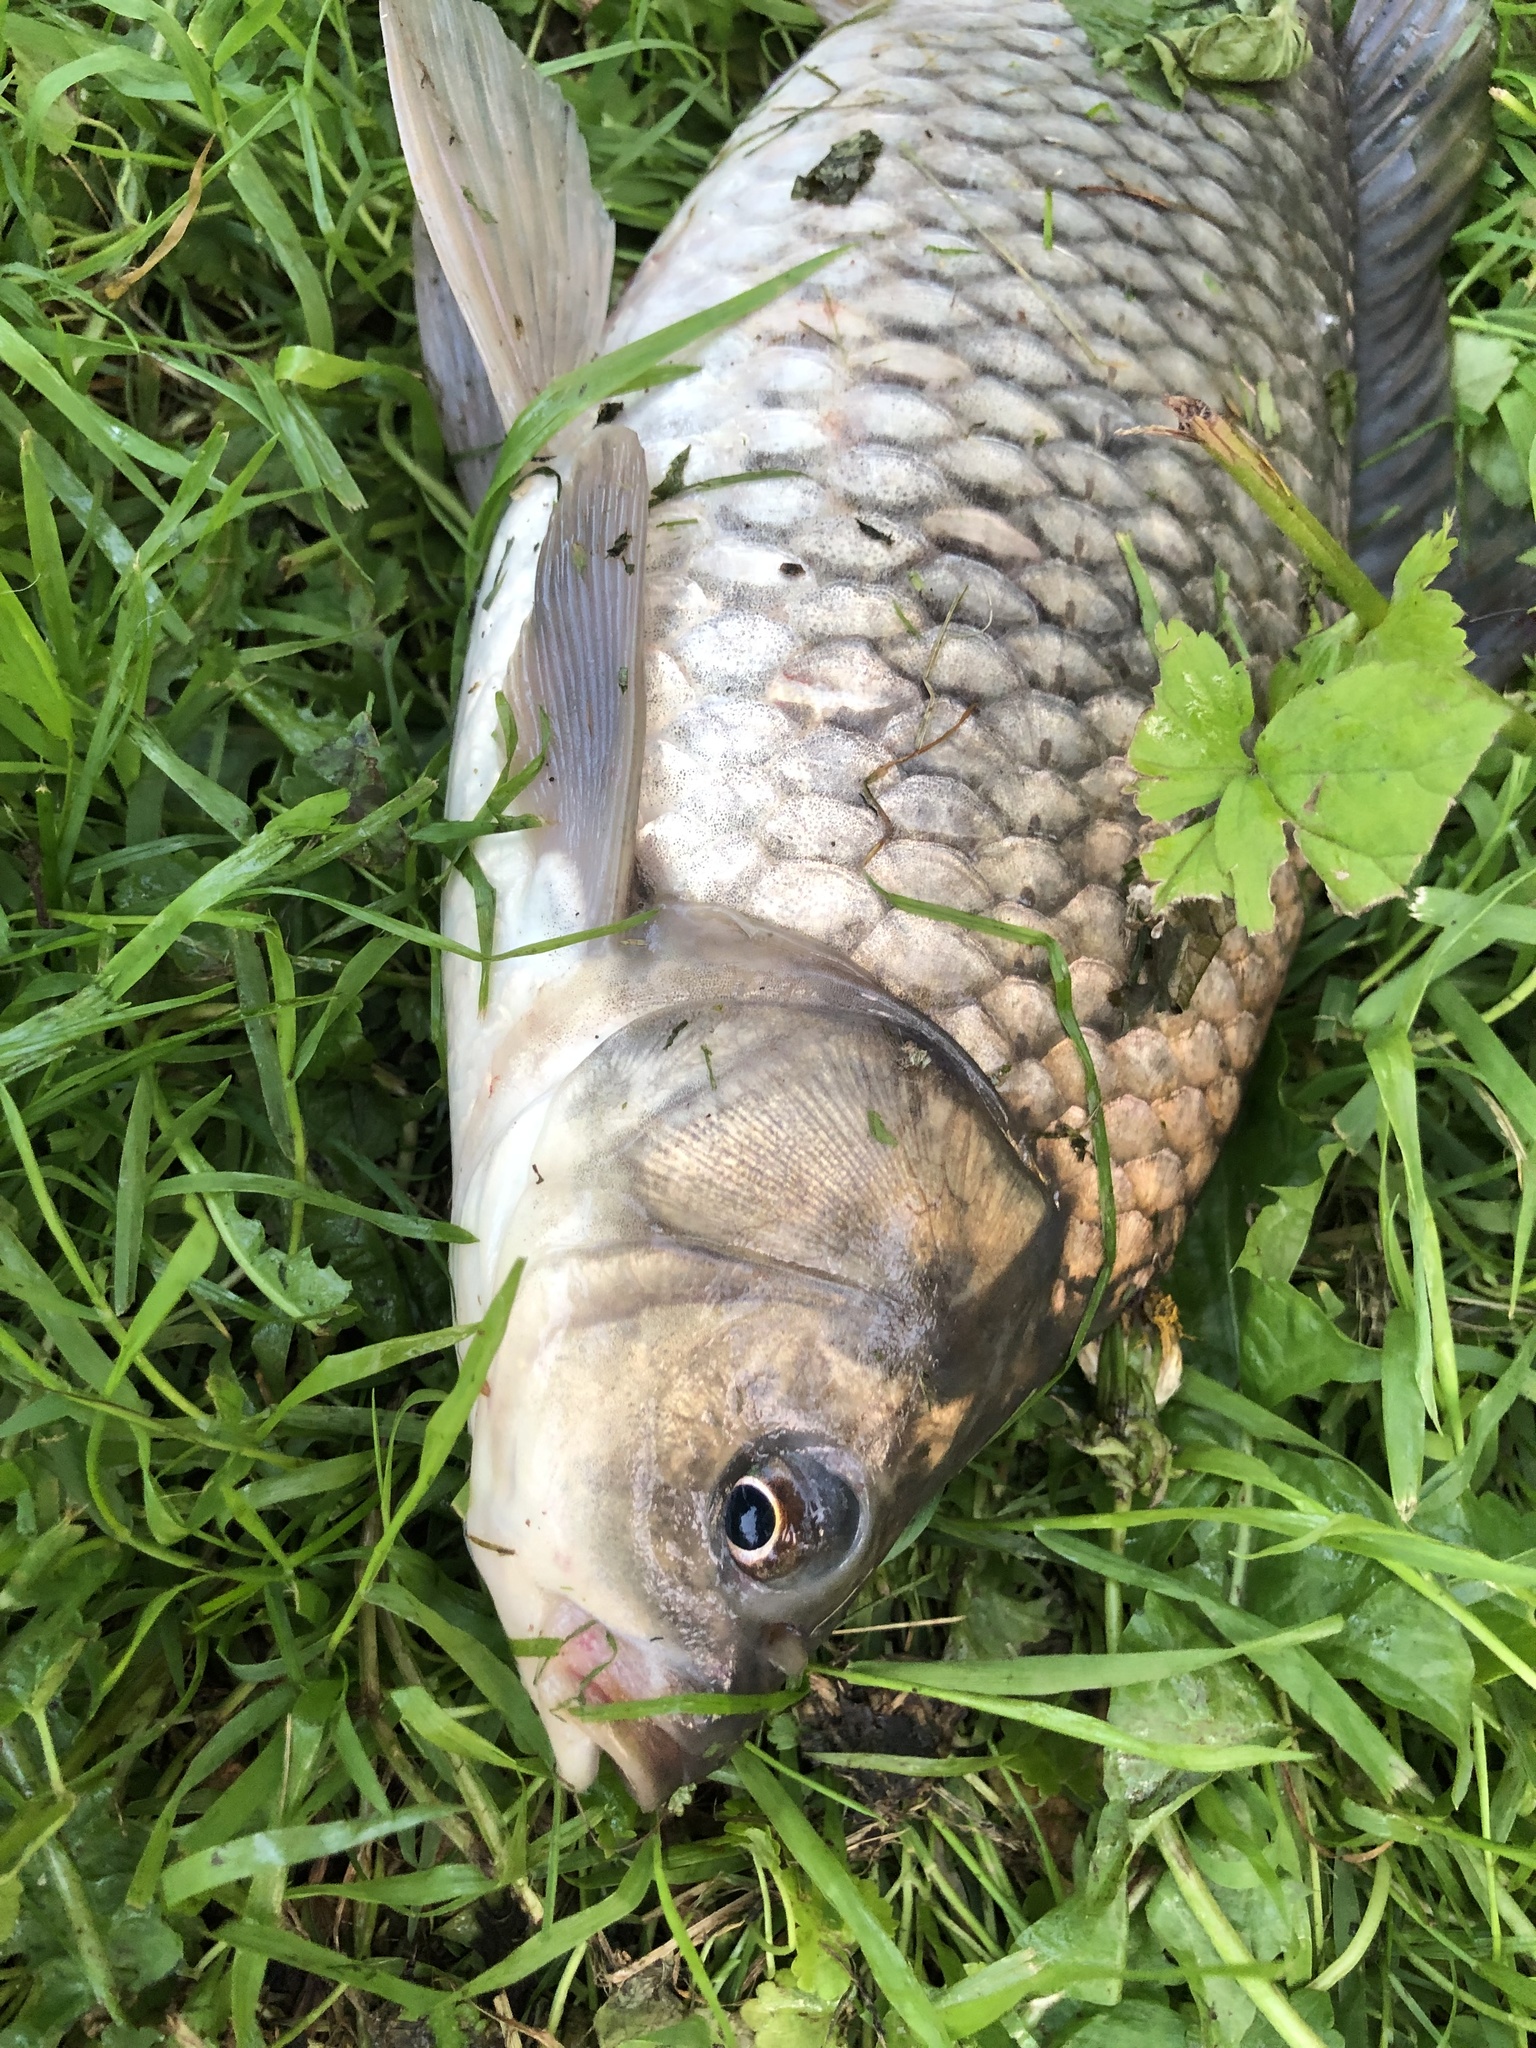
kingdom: Animalia
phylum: Chordata
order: Cypriniformes
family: Cyprinidae
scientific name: Cyprinidae
